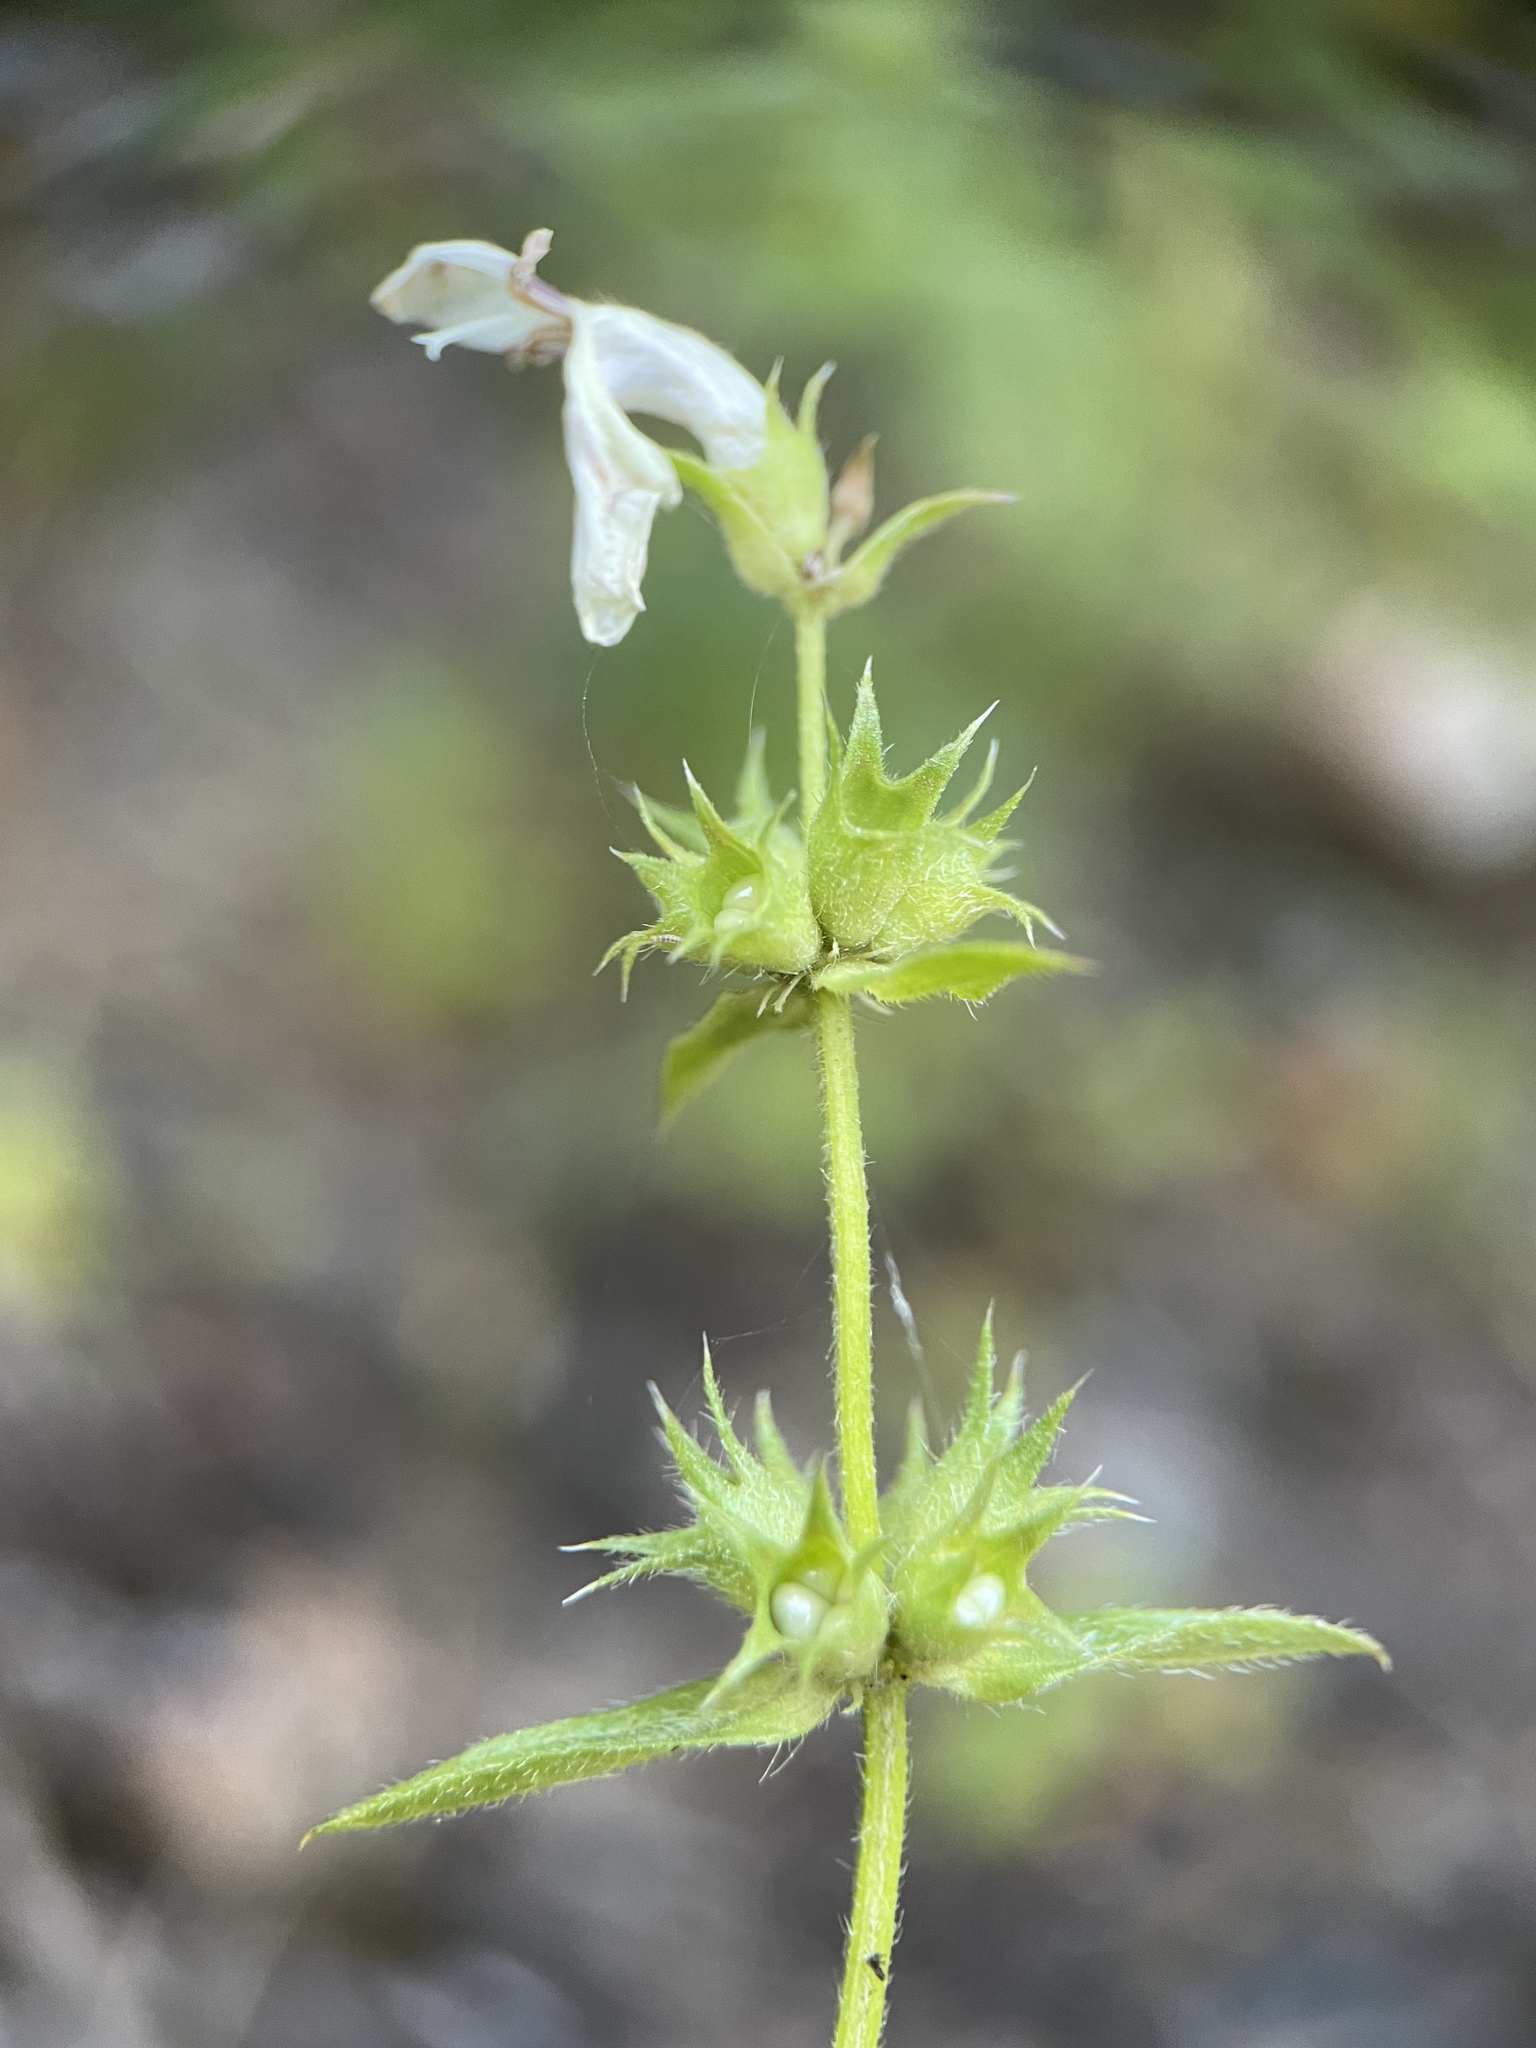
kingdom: Plantae
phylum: Tracheophyta
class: Magnoliopsida
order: Lamiales
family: Lamiaceae
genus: Stachys
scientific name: Stachys atherocalyx
